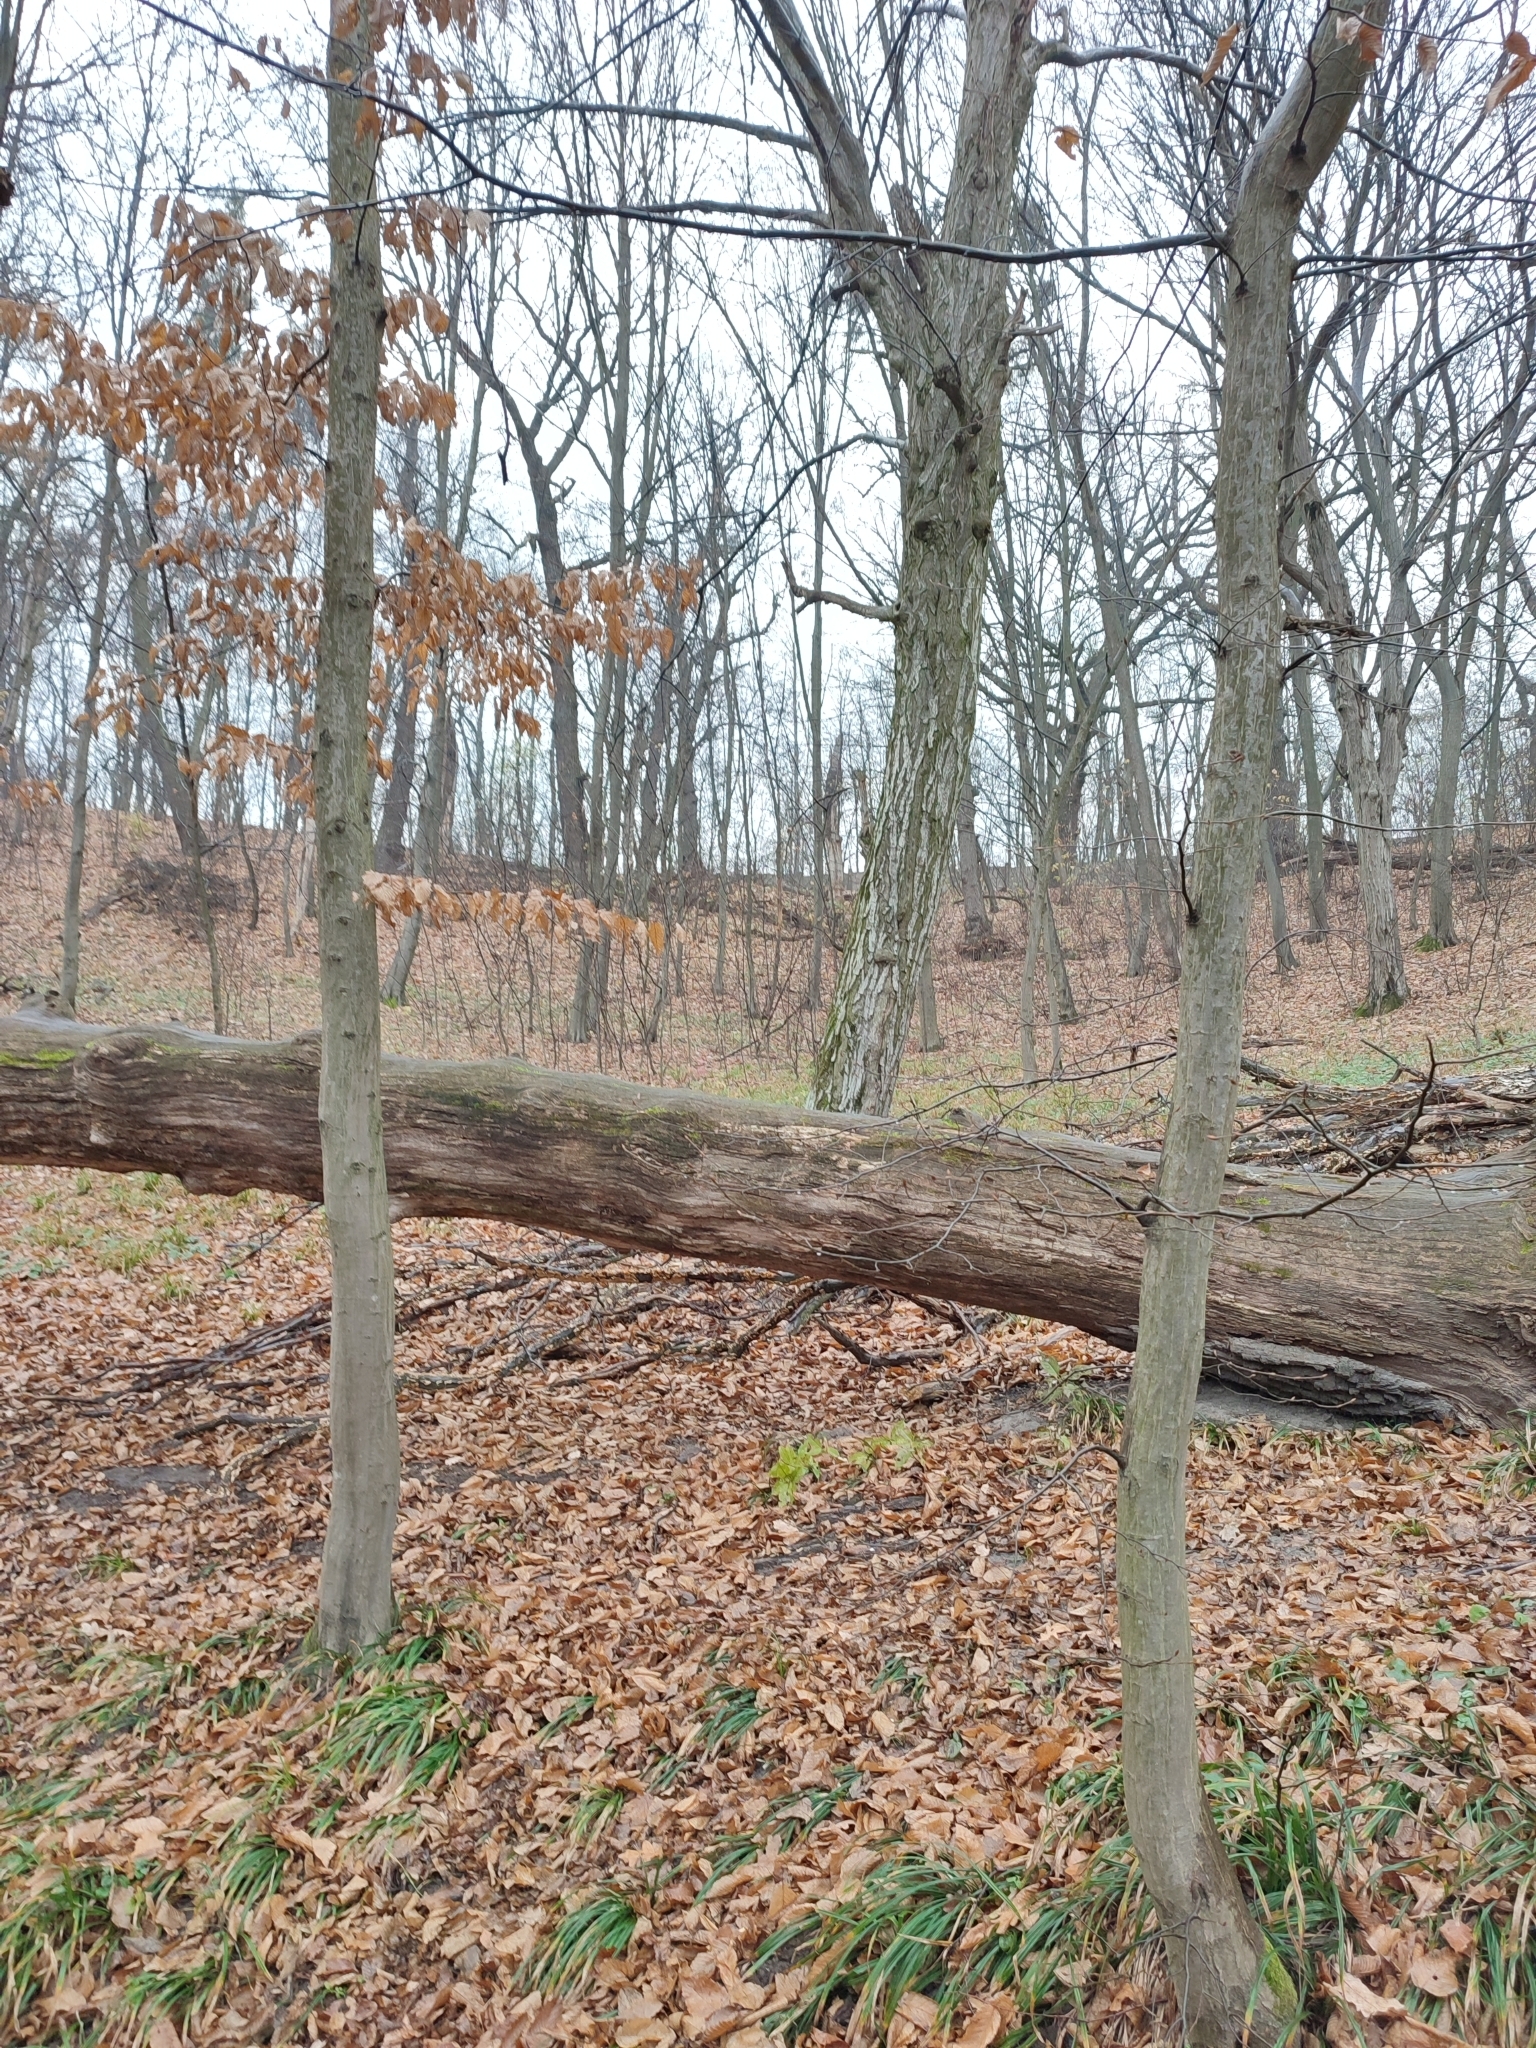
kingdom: Plantae
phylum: Tracheophyta
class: Magnoliopsida
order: Fagales
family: Betulaceae
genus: Carpinus
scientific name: Carpinus betulus
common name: Hornbeam
